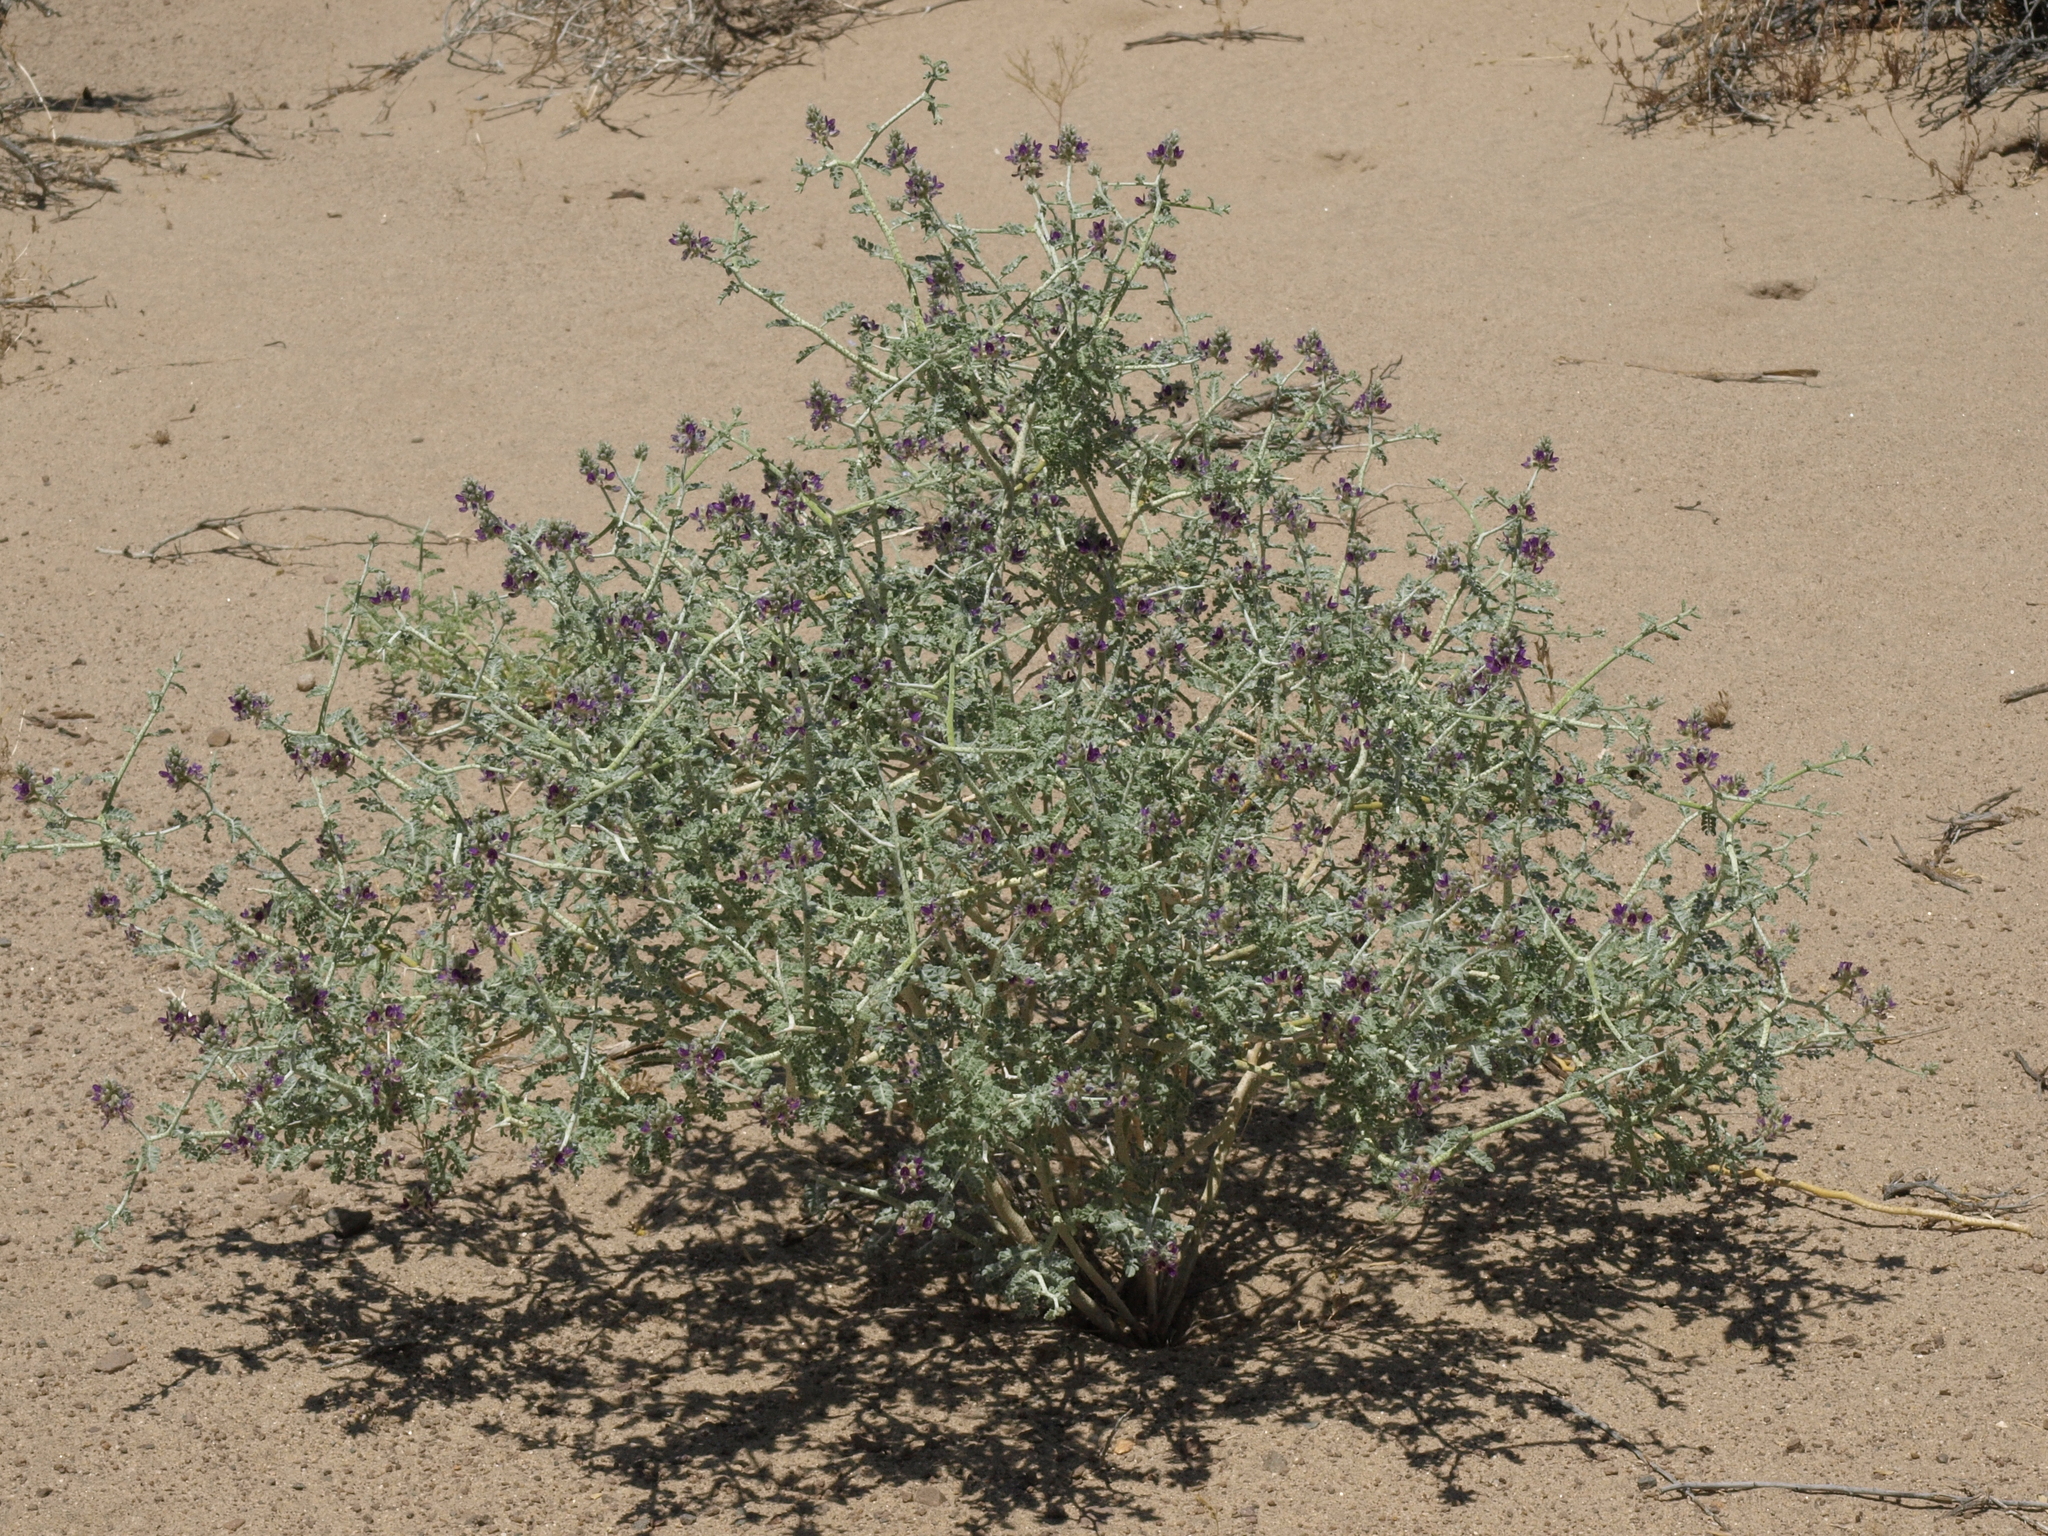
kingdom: Plantae
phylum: Tracheophyta
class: Magnoliopsida
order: Fabales
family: Fabaceae
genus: Psorothamnus
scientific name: Psorothamnus polydenius
